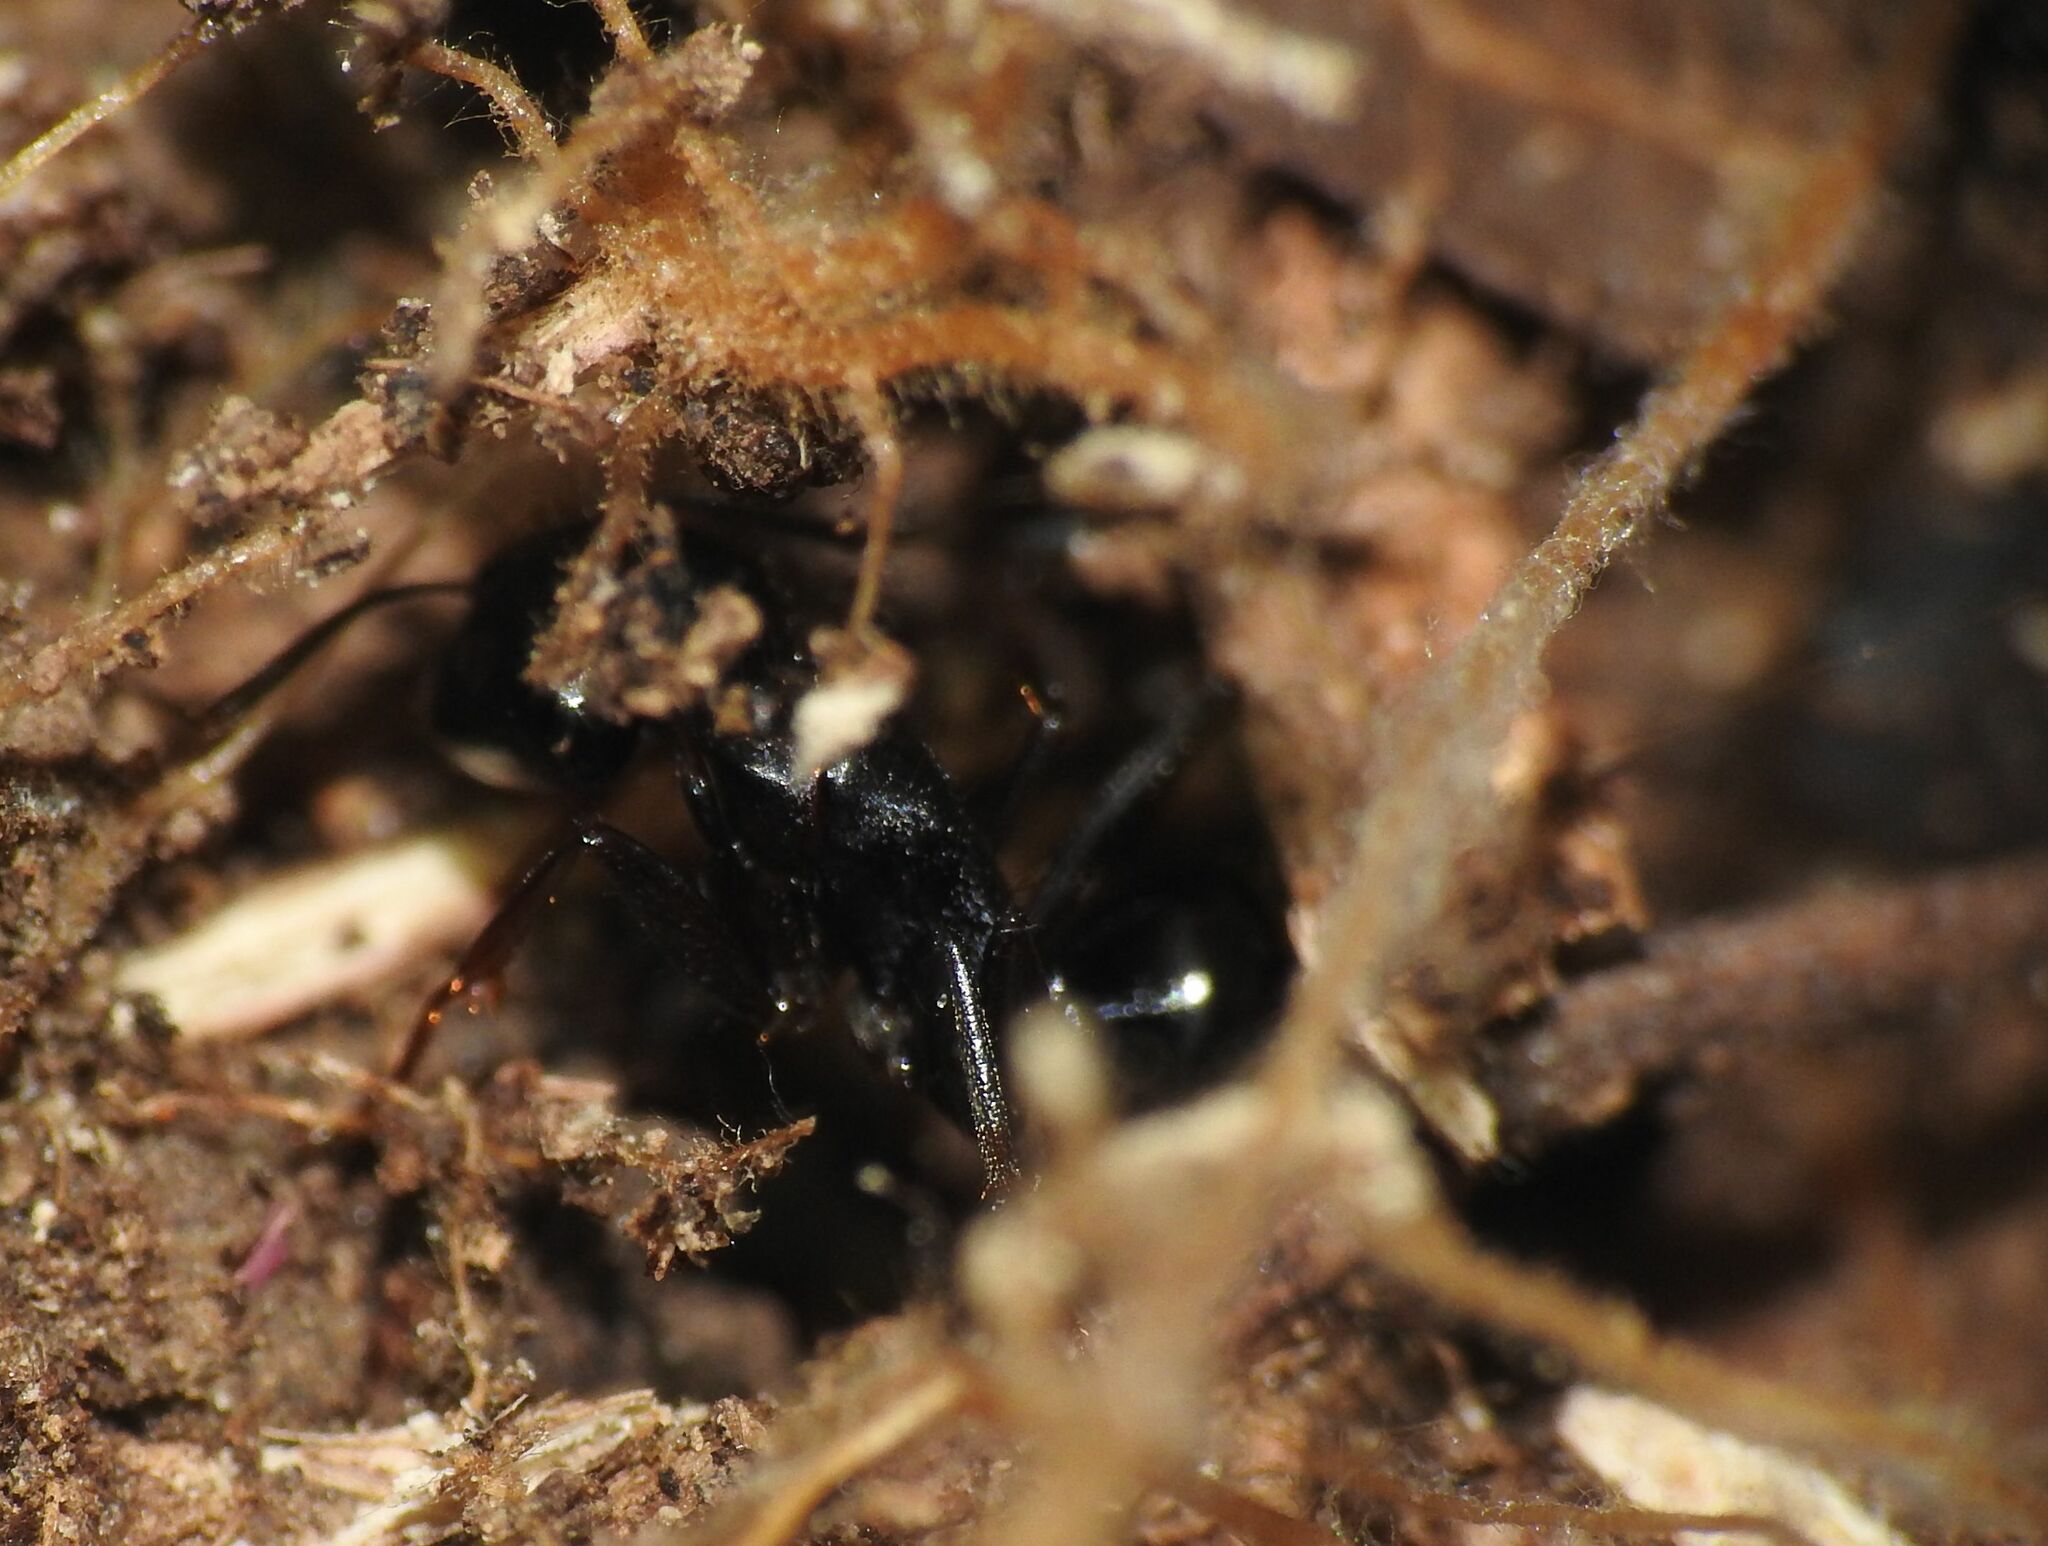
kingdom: Animalia
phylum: Arthropoda
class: Insecta
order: Hymenoptera
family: Formicidae
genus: Camponotus
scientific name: Camponotus aethiops
